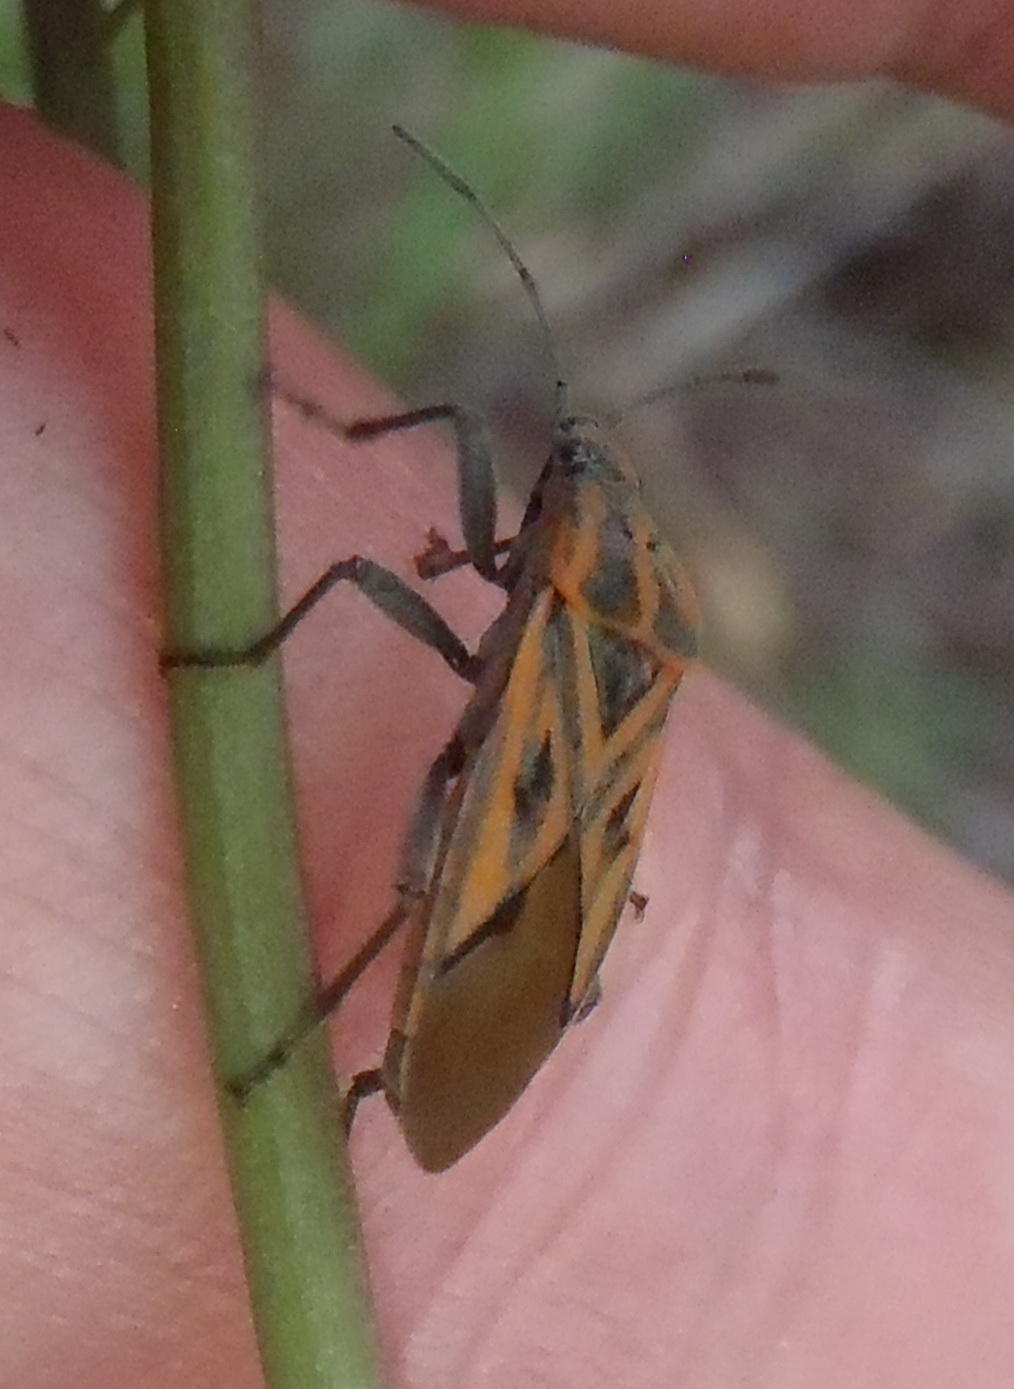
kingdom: Animalia
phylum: Arthropoda
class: Insecta
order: Hemiptera
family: Lygaeidae
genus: Spilostethus
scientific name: Spilostethus rivularis
